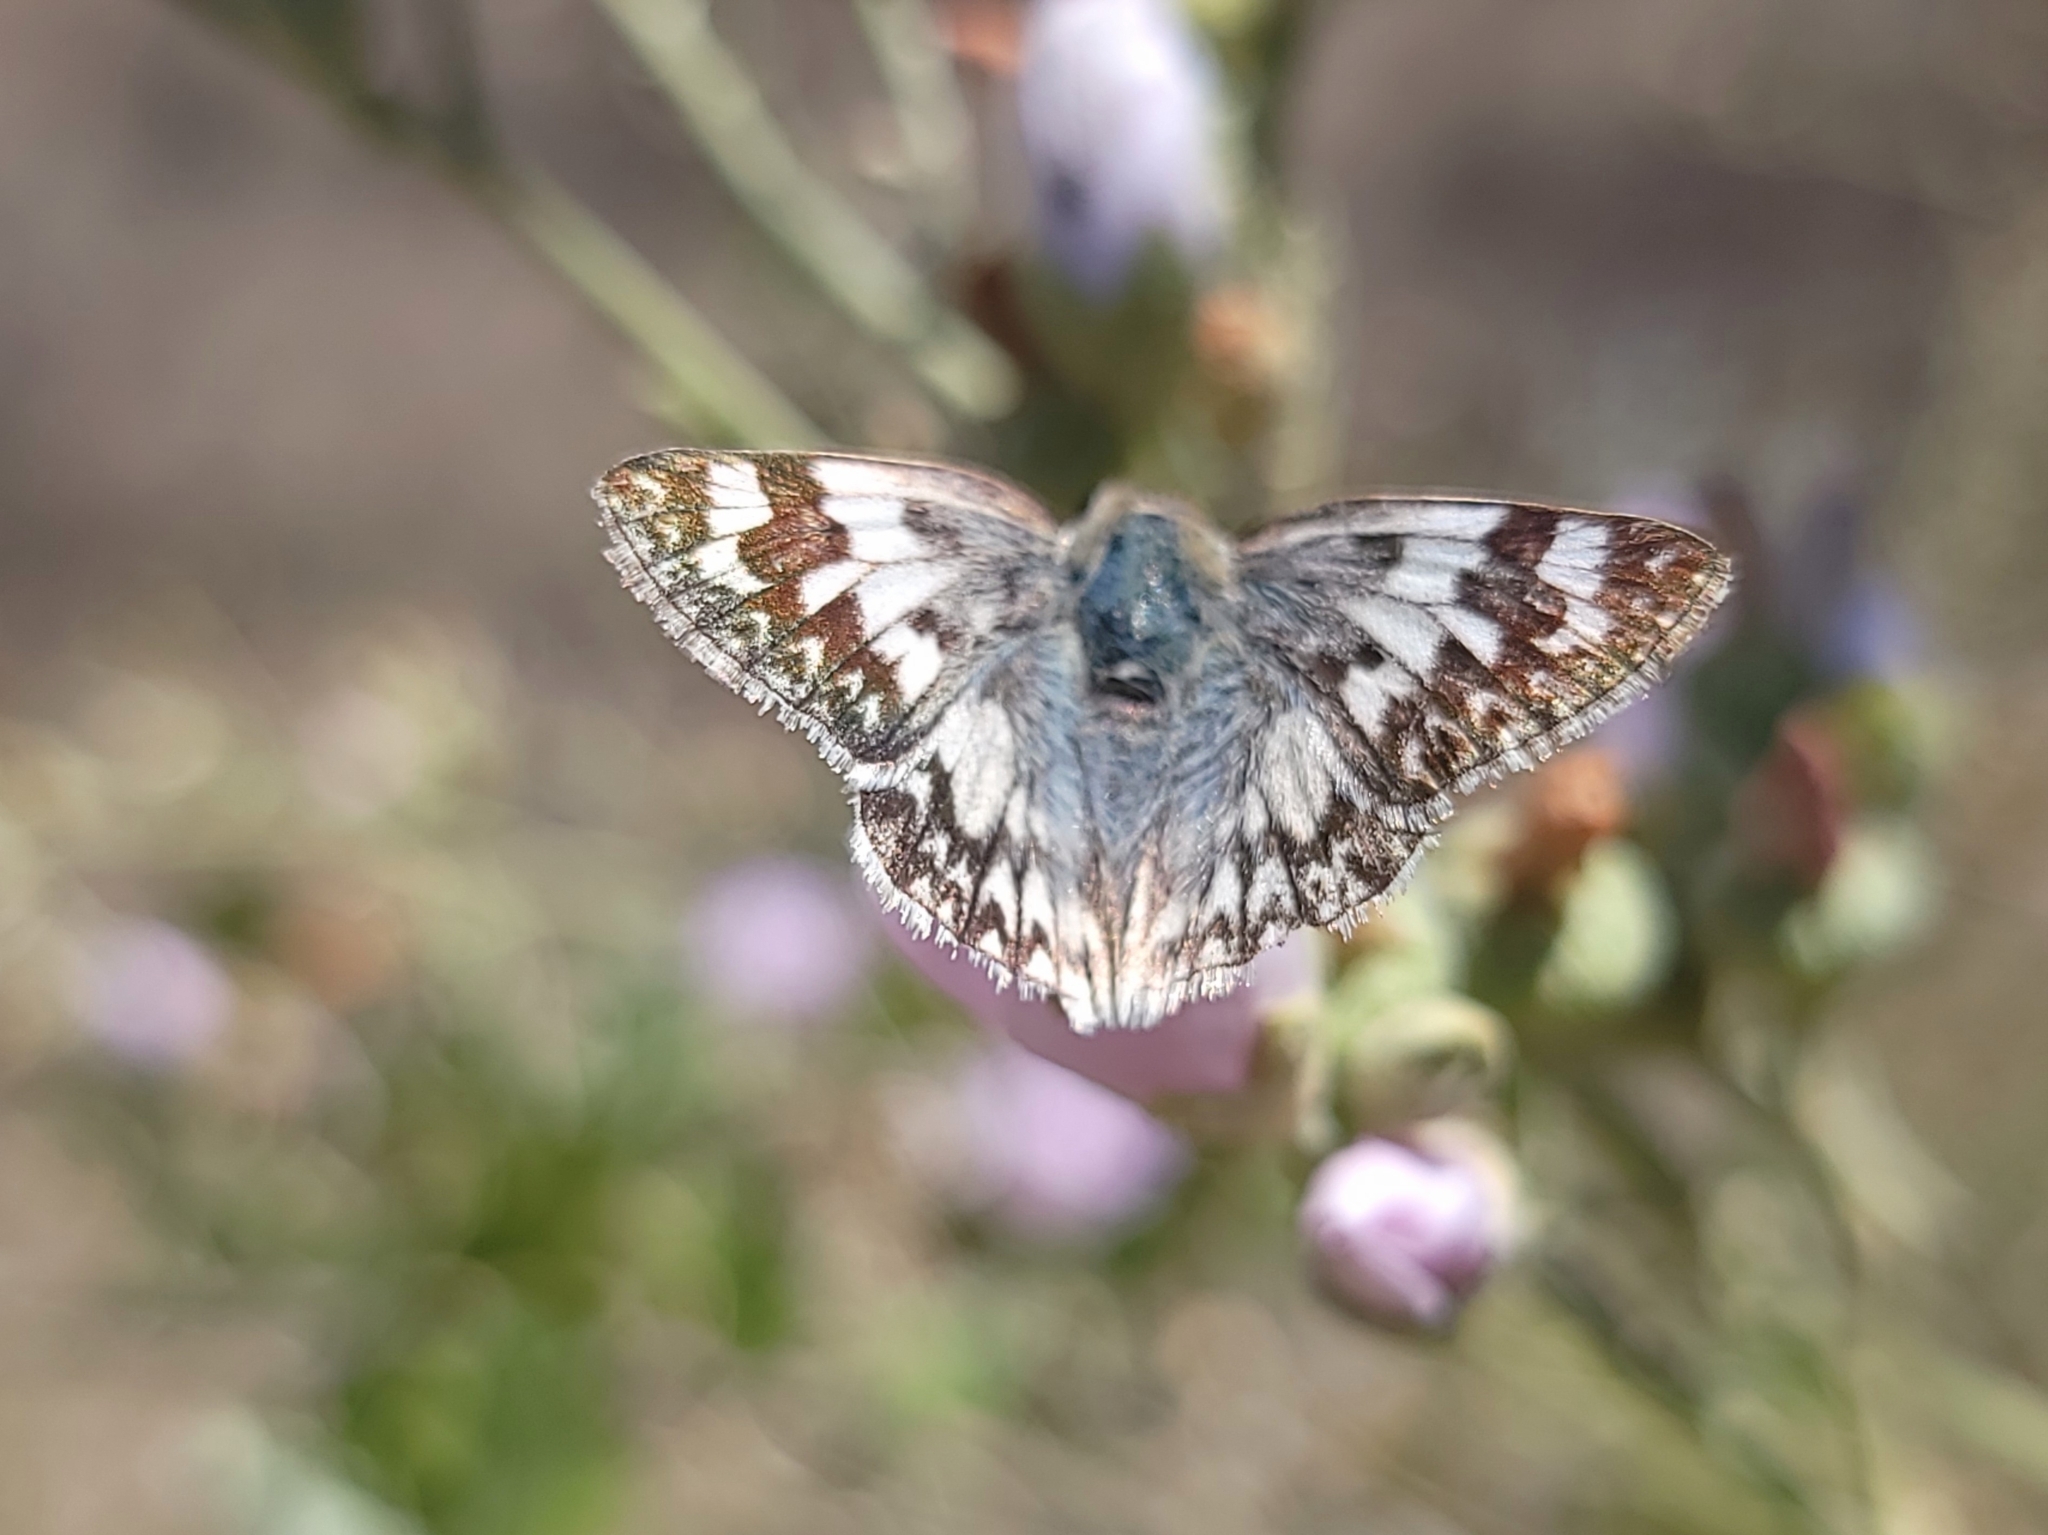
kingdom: Animalia
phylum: Arthropoda
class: Insecta
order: Lepidoptera
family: Hesperiidae
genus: Heliopetes
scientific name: Heliopetes ericetorum
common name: Northern white-skipper
